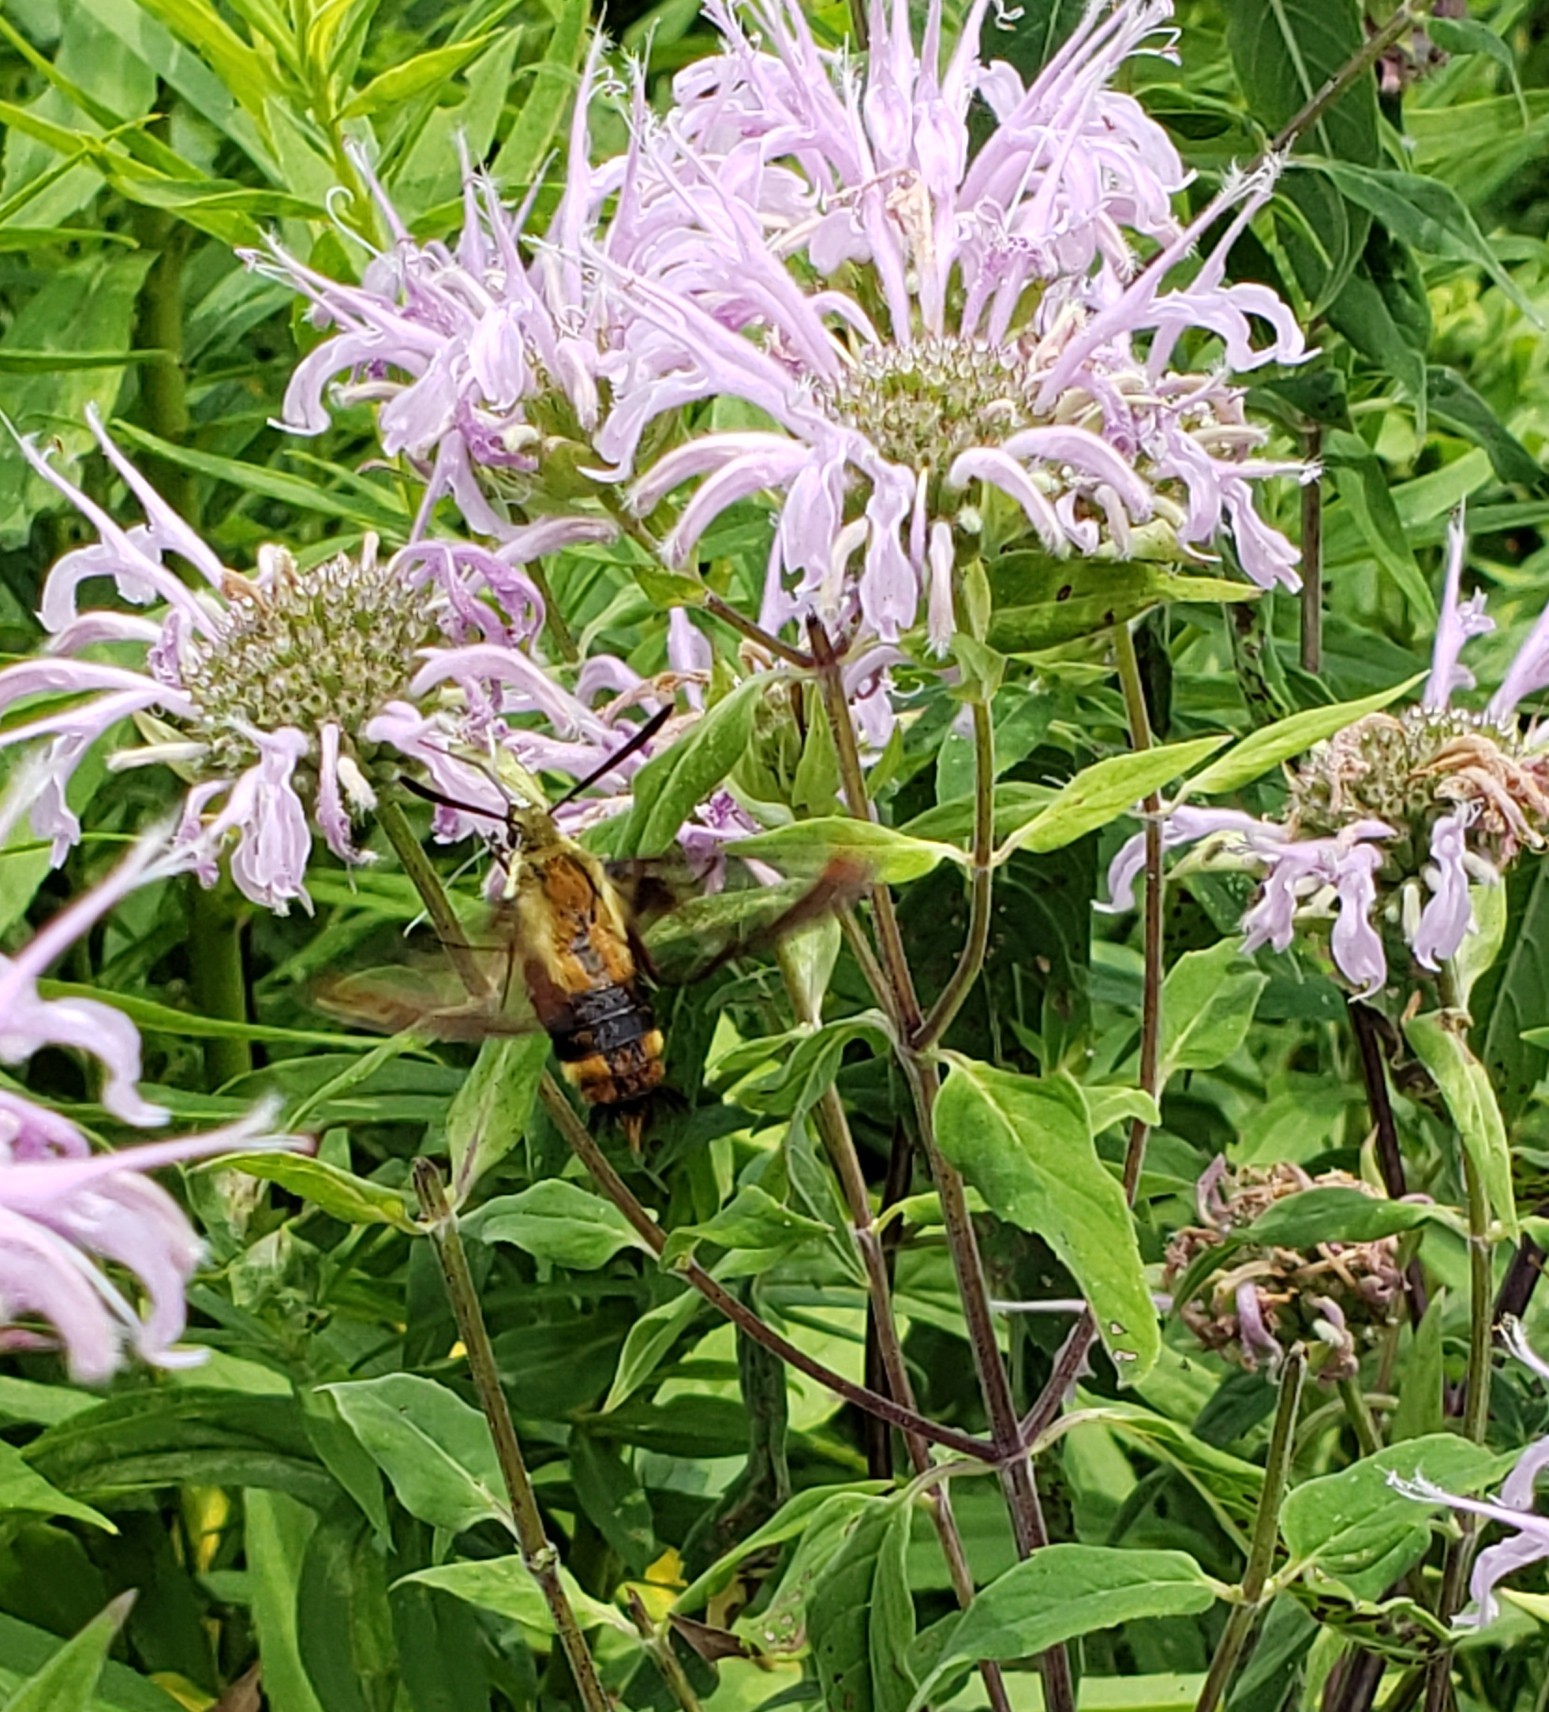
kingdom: Animalia
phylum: Arthropoda
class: Insecta
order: Lepidoptera
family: Sphingidae
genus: Hemaris
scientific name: Hemaris diffinis
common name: Bumblebee moth
